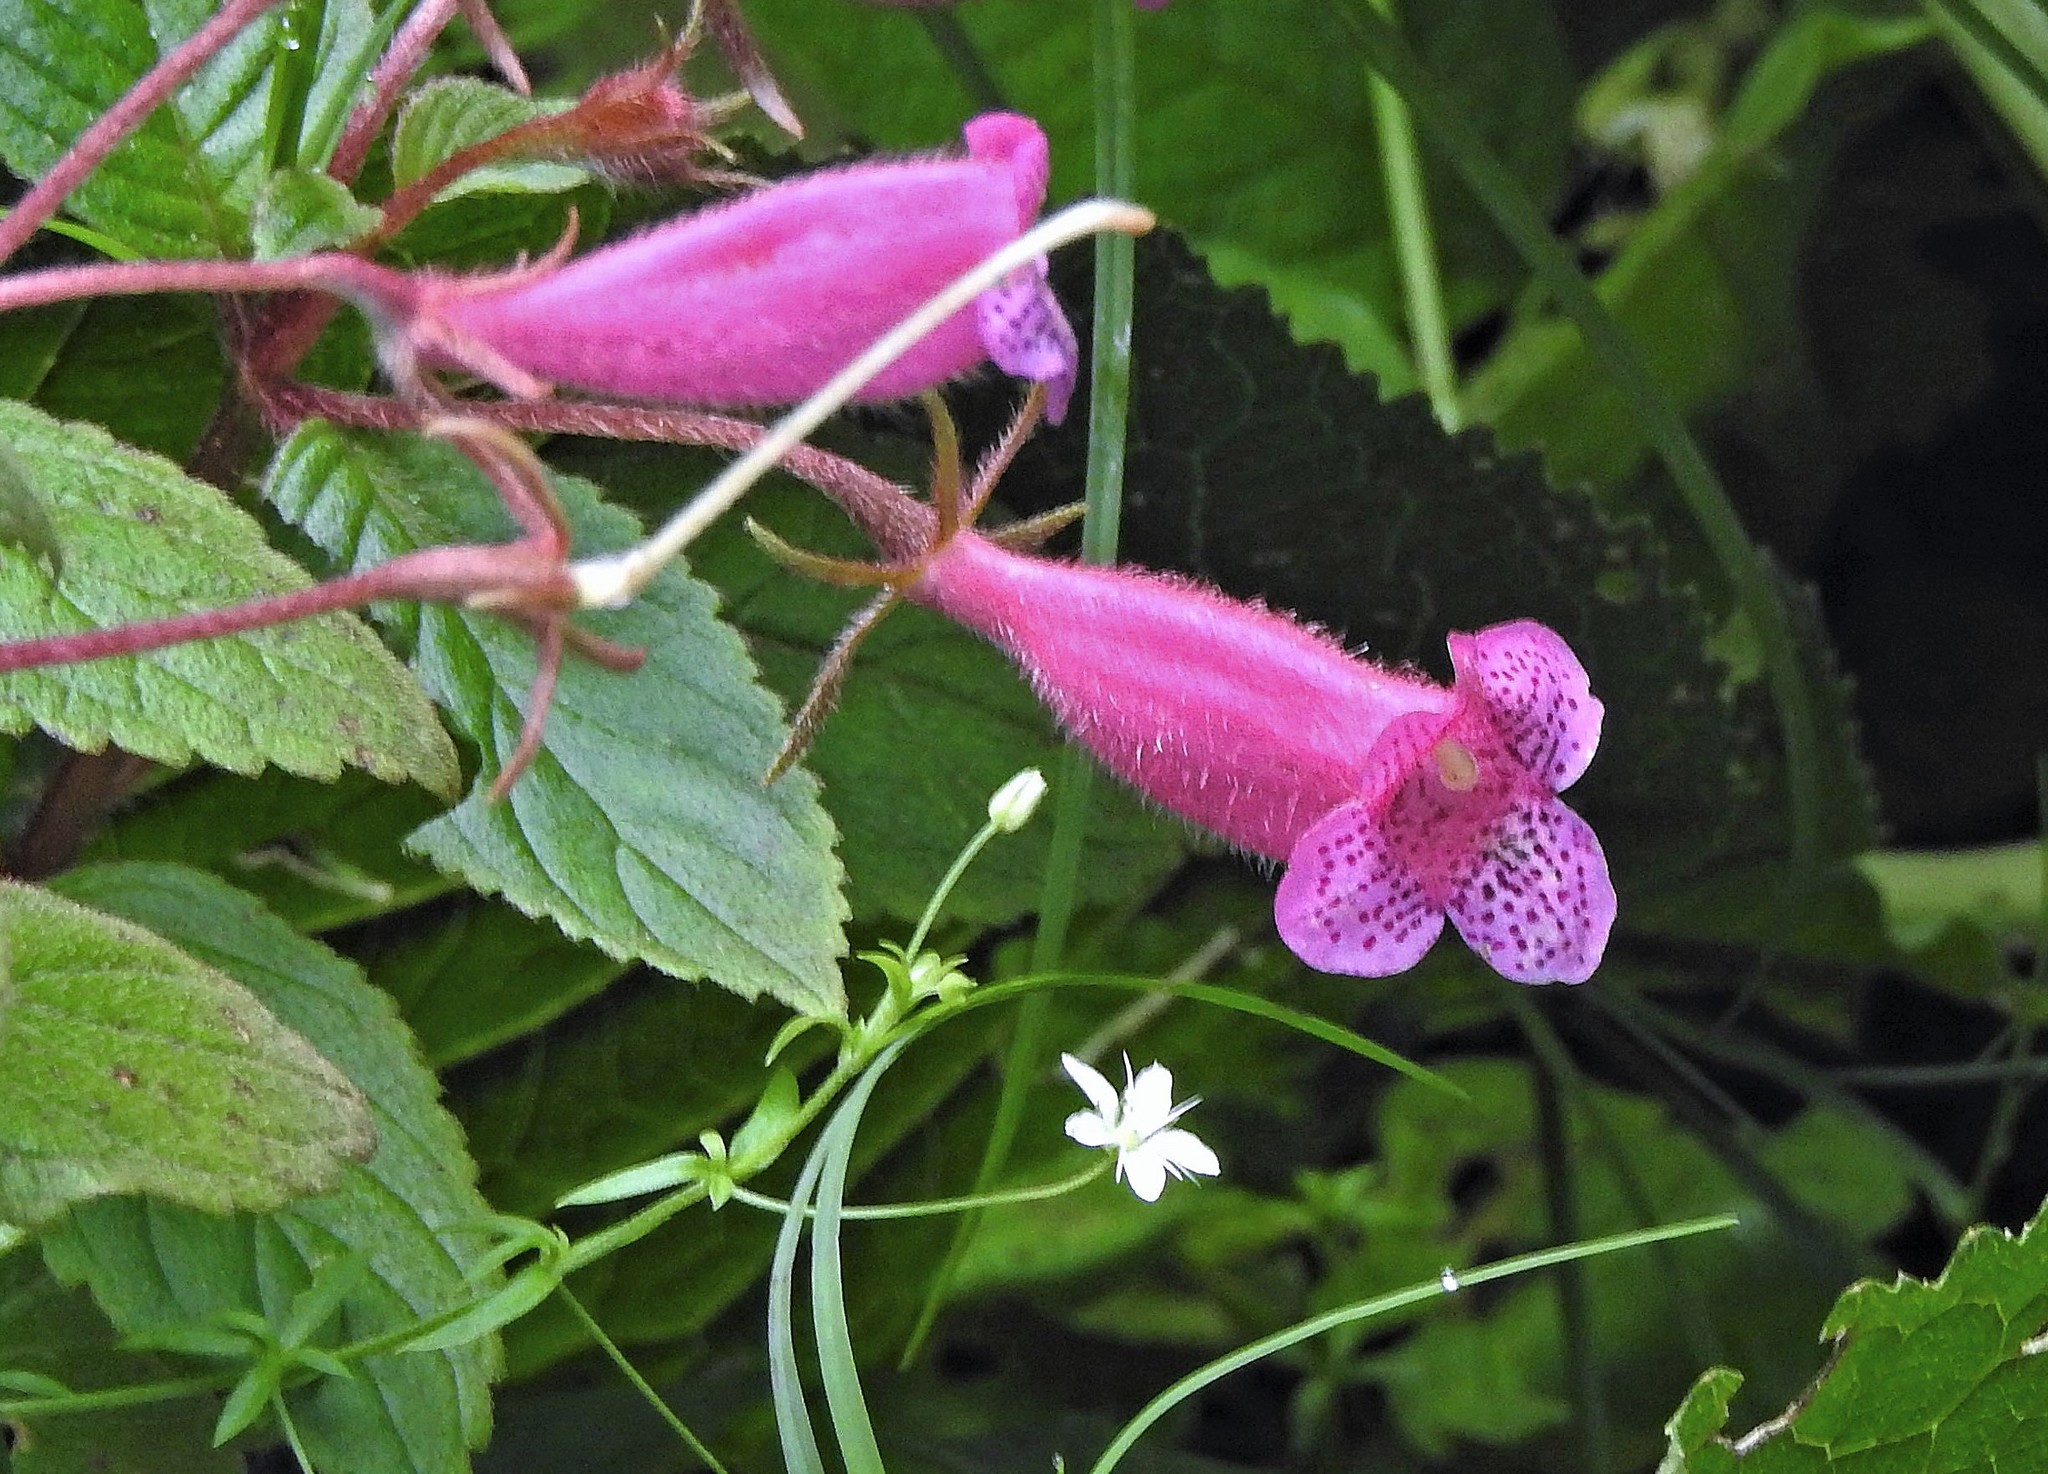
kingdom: Plantae
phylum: Tracheophyta
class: Magnoliopsida
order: Lamiales
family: Gesneriaceae
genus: Seemannia
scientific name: Seemannia gymnostoma
